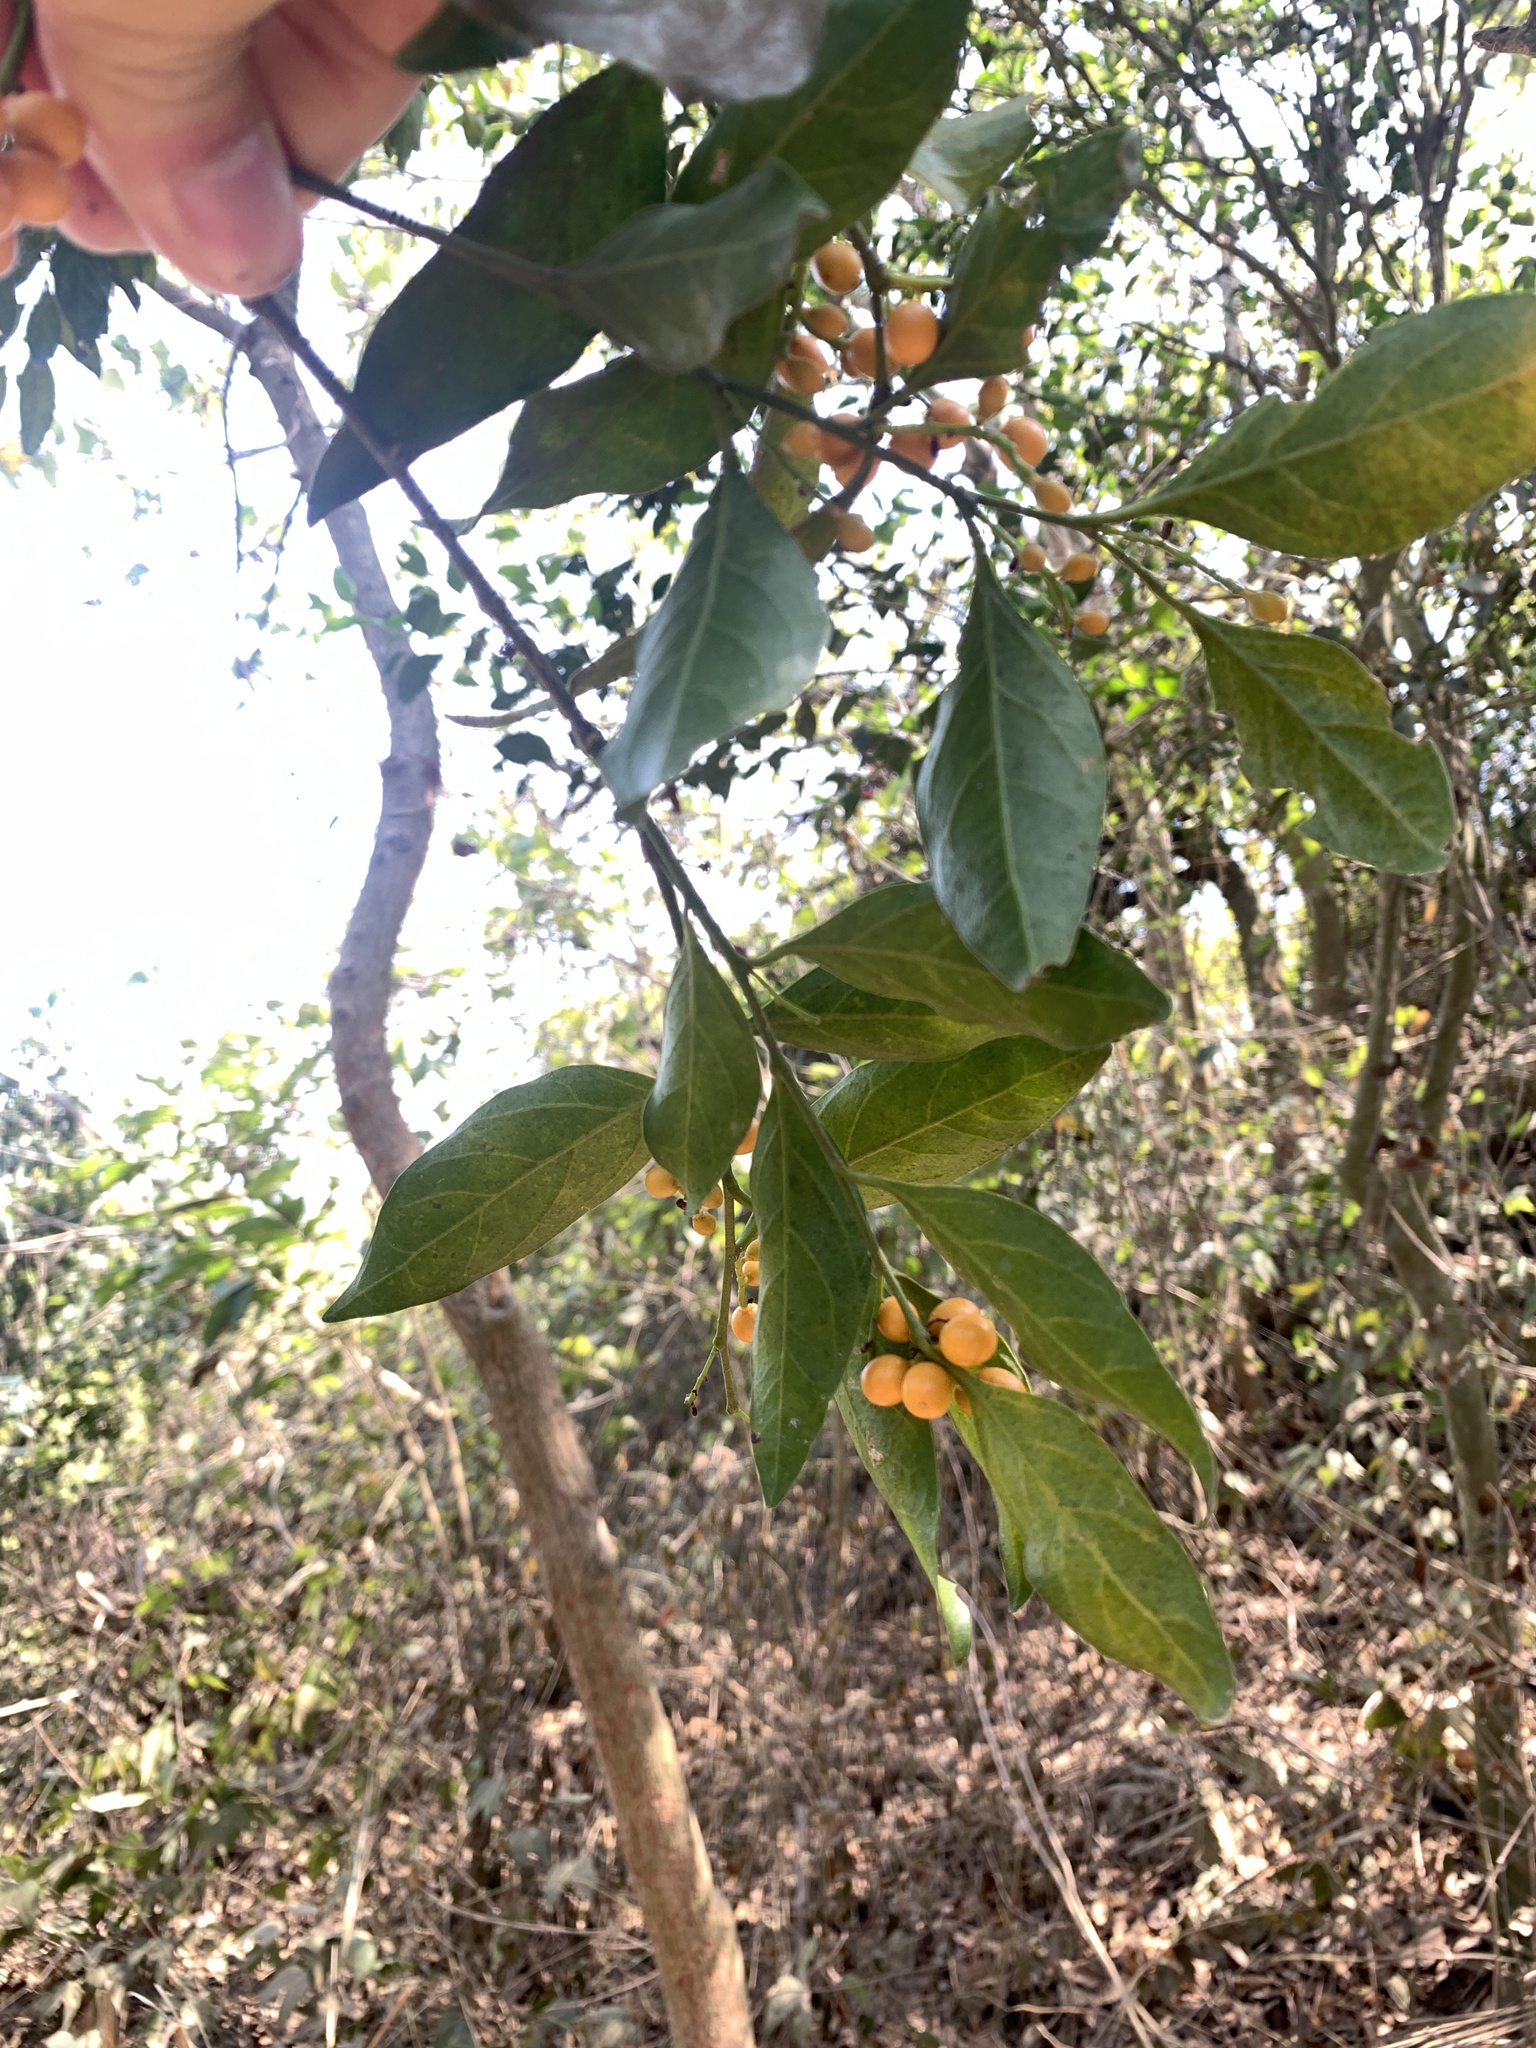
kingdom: Plantae
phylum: Tracheophyta
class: Magnoliopsida
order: Santalales
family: Opiliaceae
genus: Champereia
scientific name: Champereia manillana
